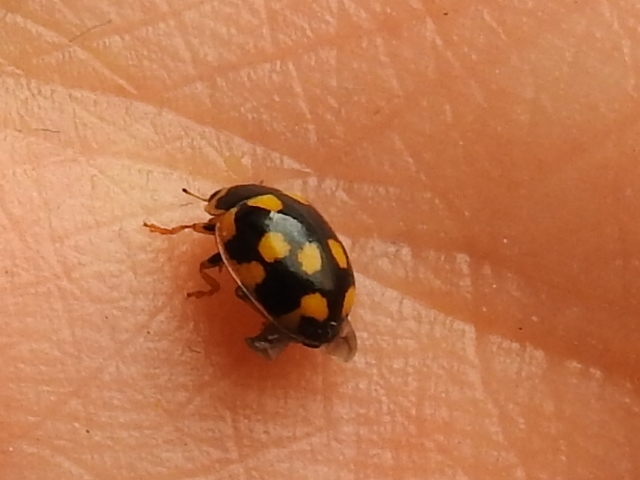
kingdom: Animalia
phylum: Arthropoda
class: Insecta
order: Coleoptera
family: Coccinellidae
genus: Propylaea
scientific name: Propylaea quatuordecimpunctata
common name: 14-spotted ladybird beetle
